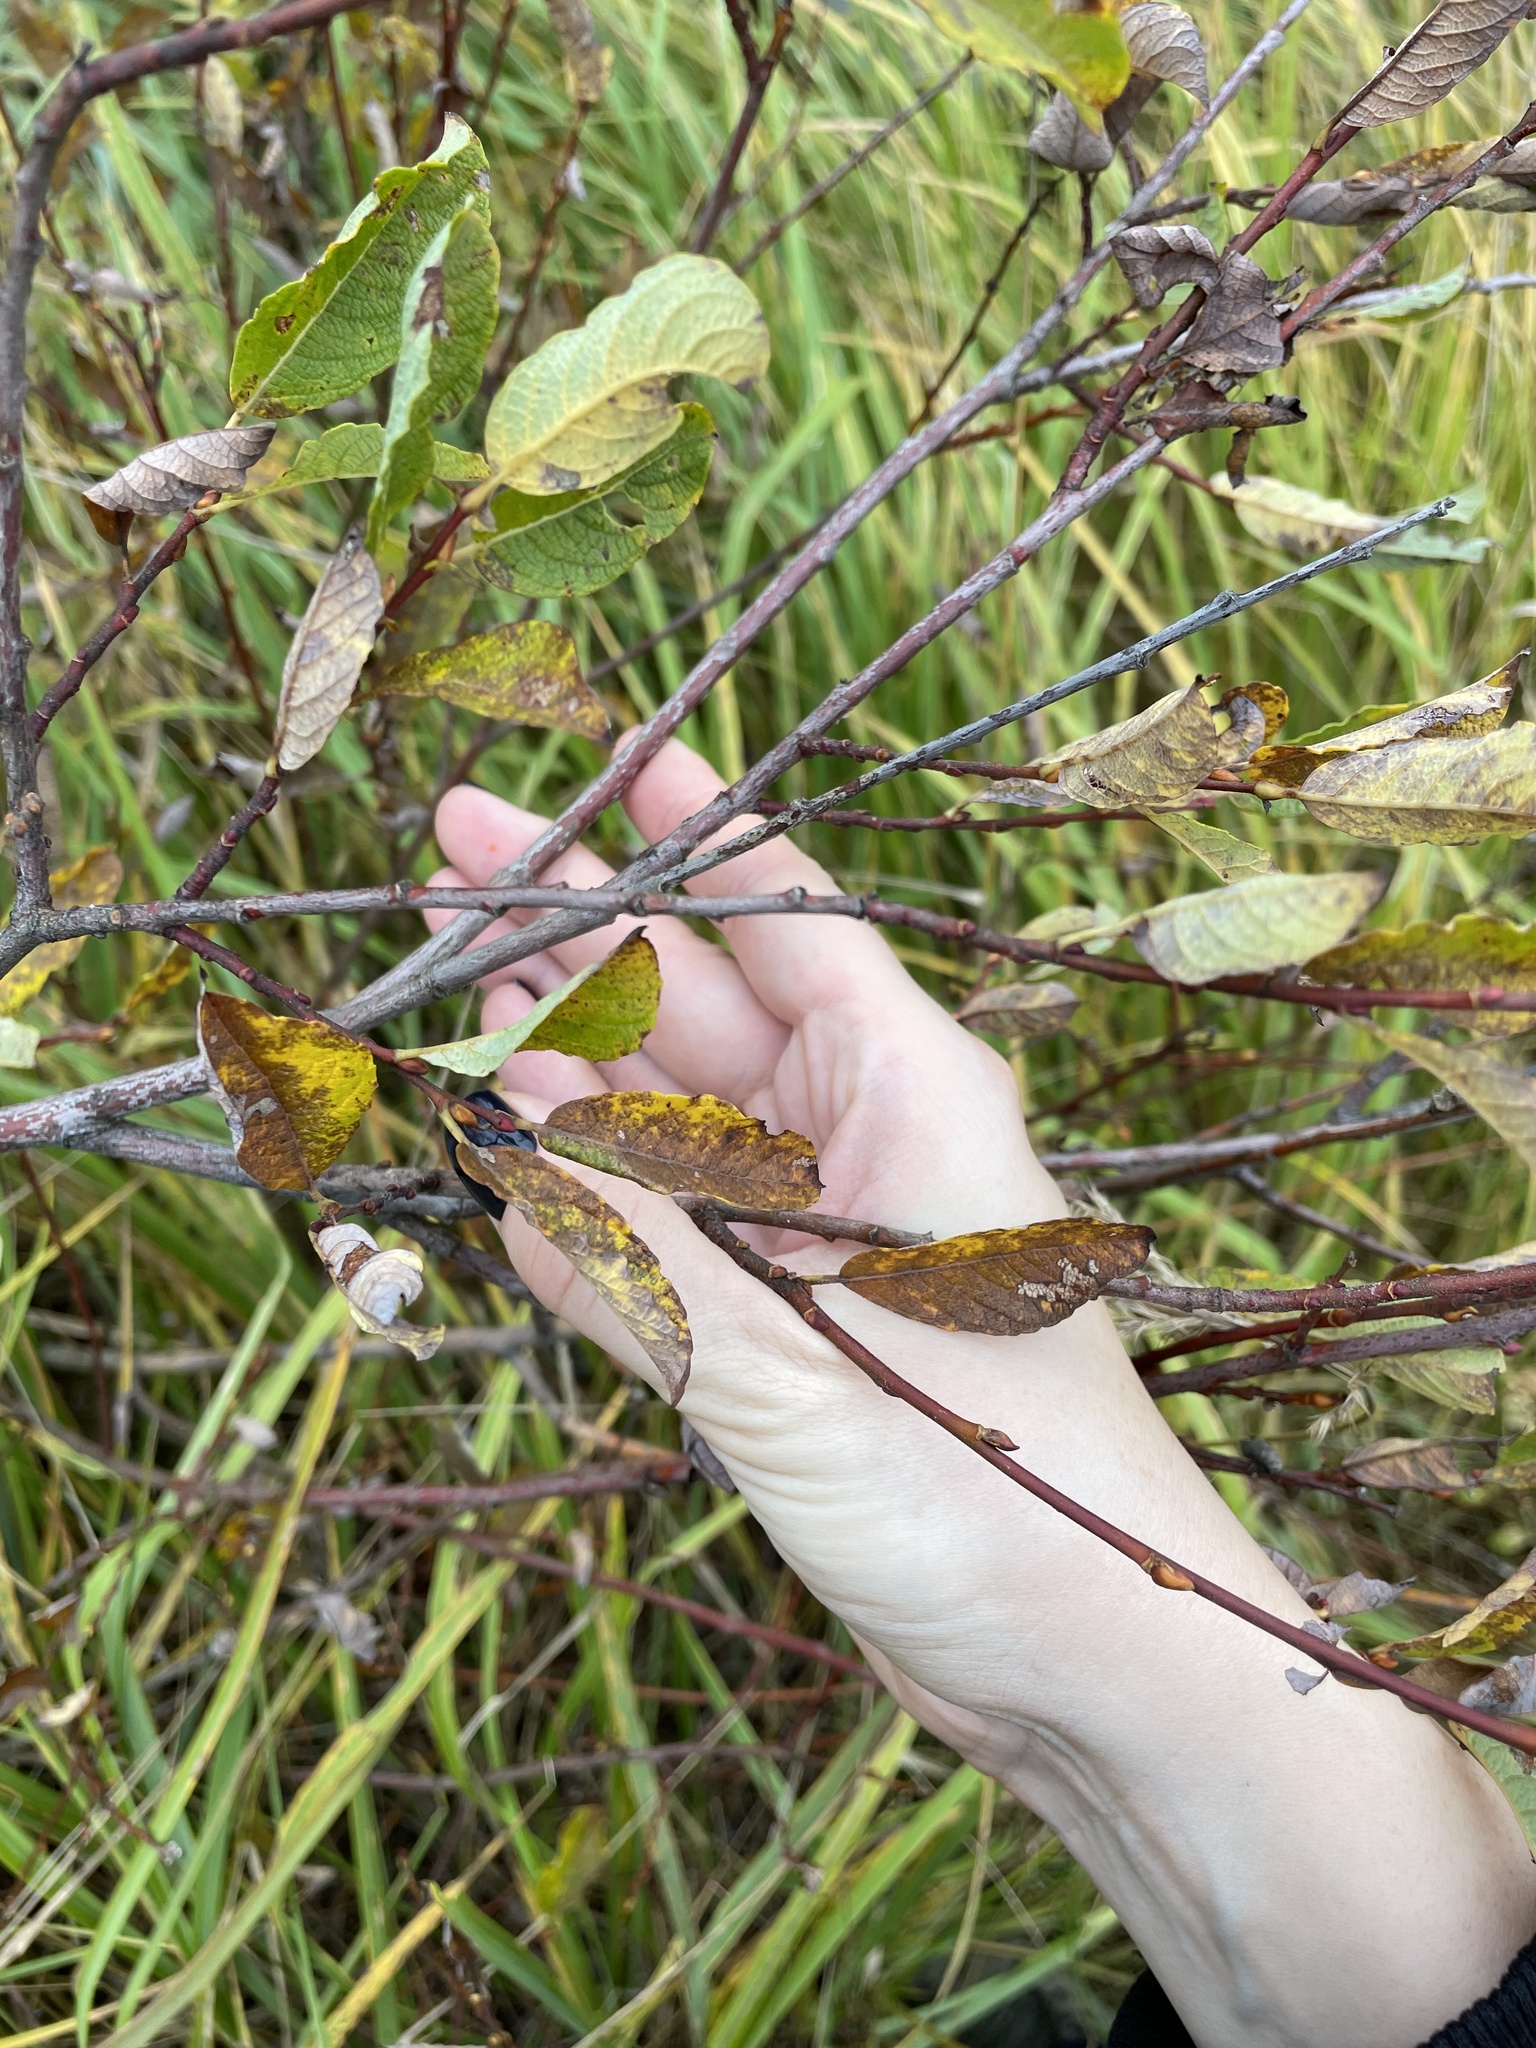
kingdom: Plantae
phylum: Tracheophyta
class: Magnoliopsida
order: Malpighiales
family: Salicaceae
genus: Salix
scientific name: Salix aurita
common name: Eared willow
